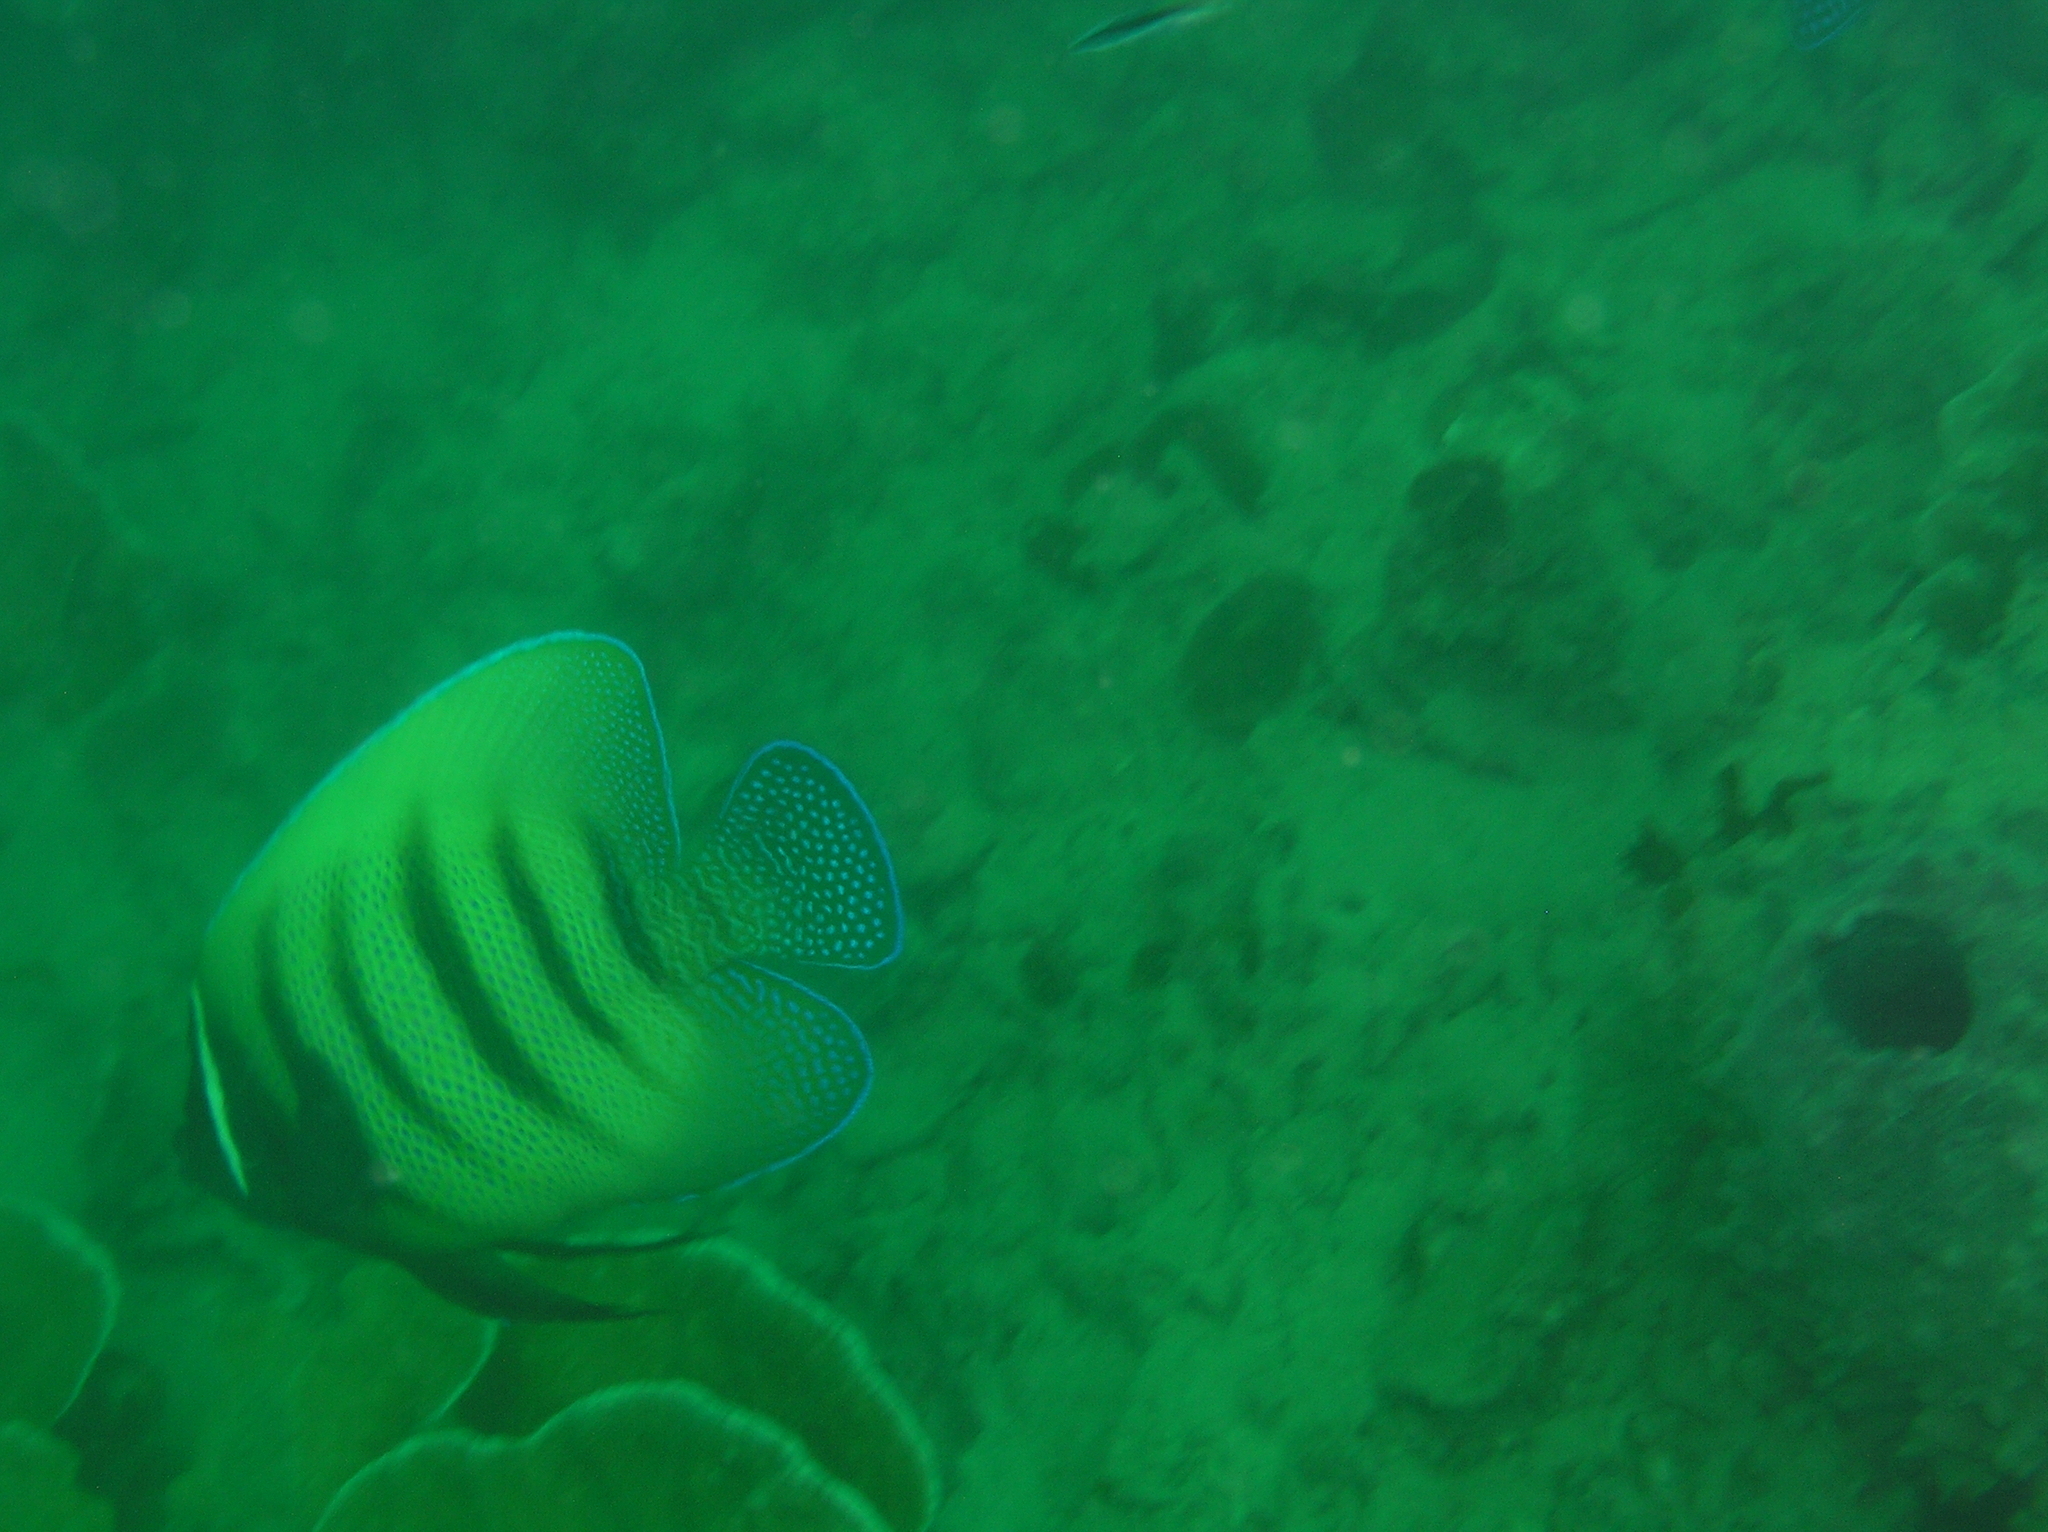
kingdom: Animalia
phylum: Chordata
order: Perciformes
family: Pomacanthidae
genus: Pomacanthus
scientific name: Pomacanthus sexstriatus
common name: Six-banded angelfish
